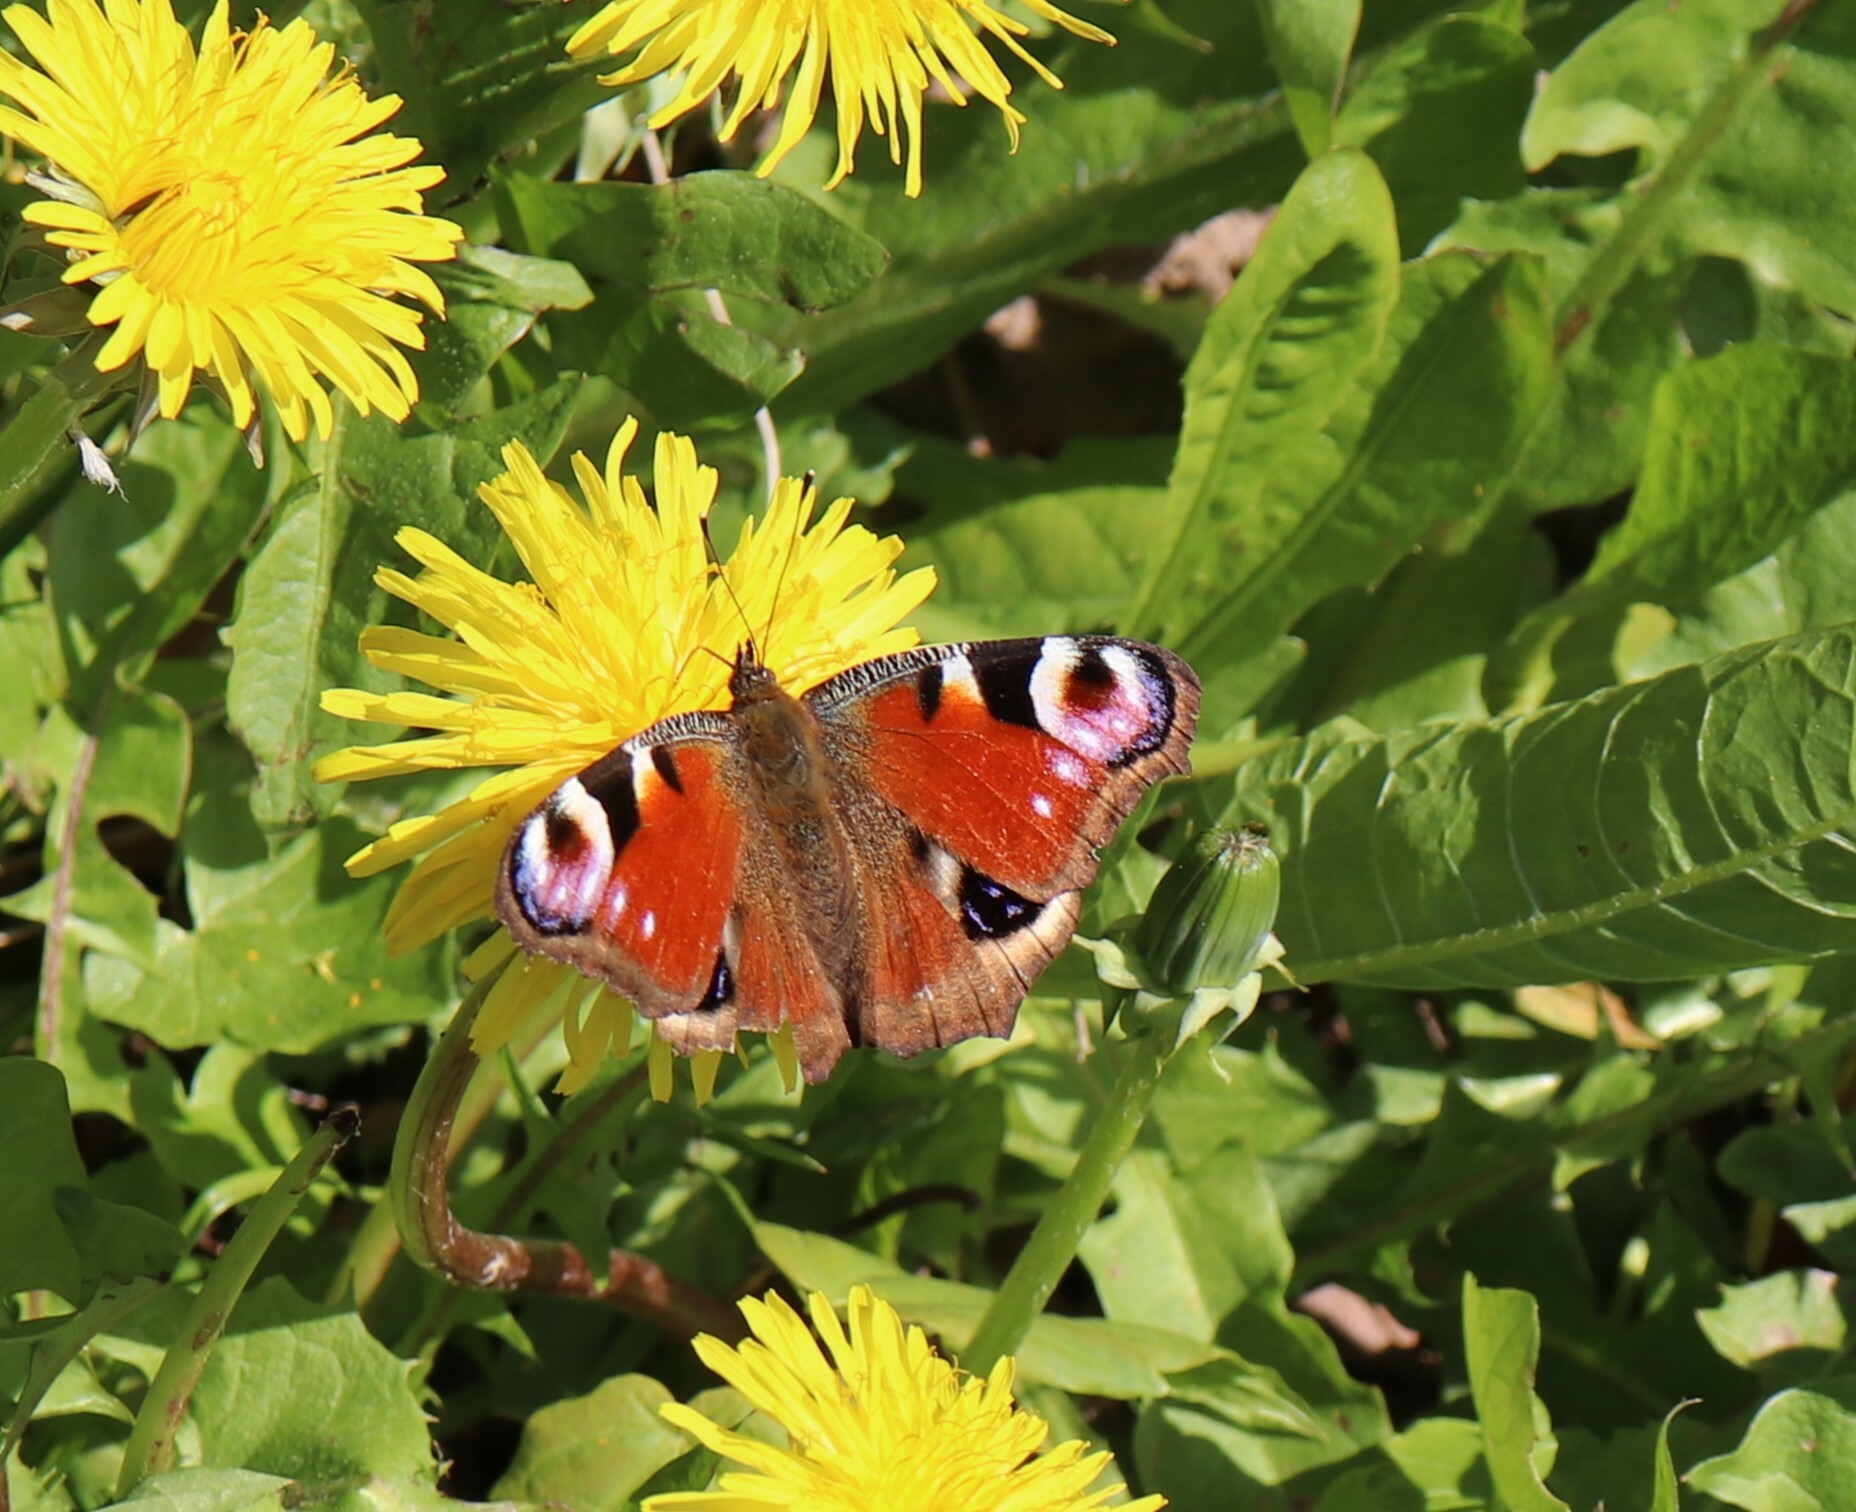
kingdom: Animalia
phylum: Arthropoda
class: Insecta
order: Lepidoptera
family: Nymphalidae
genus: Aglais
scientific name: Aglais io
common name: Peacock
